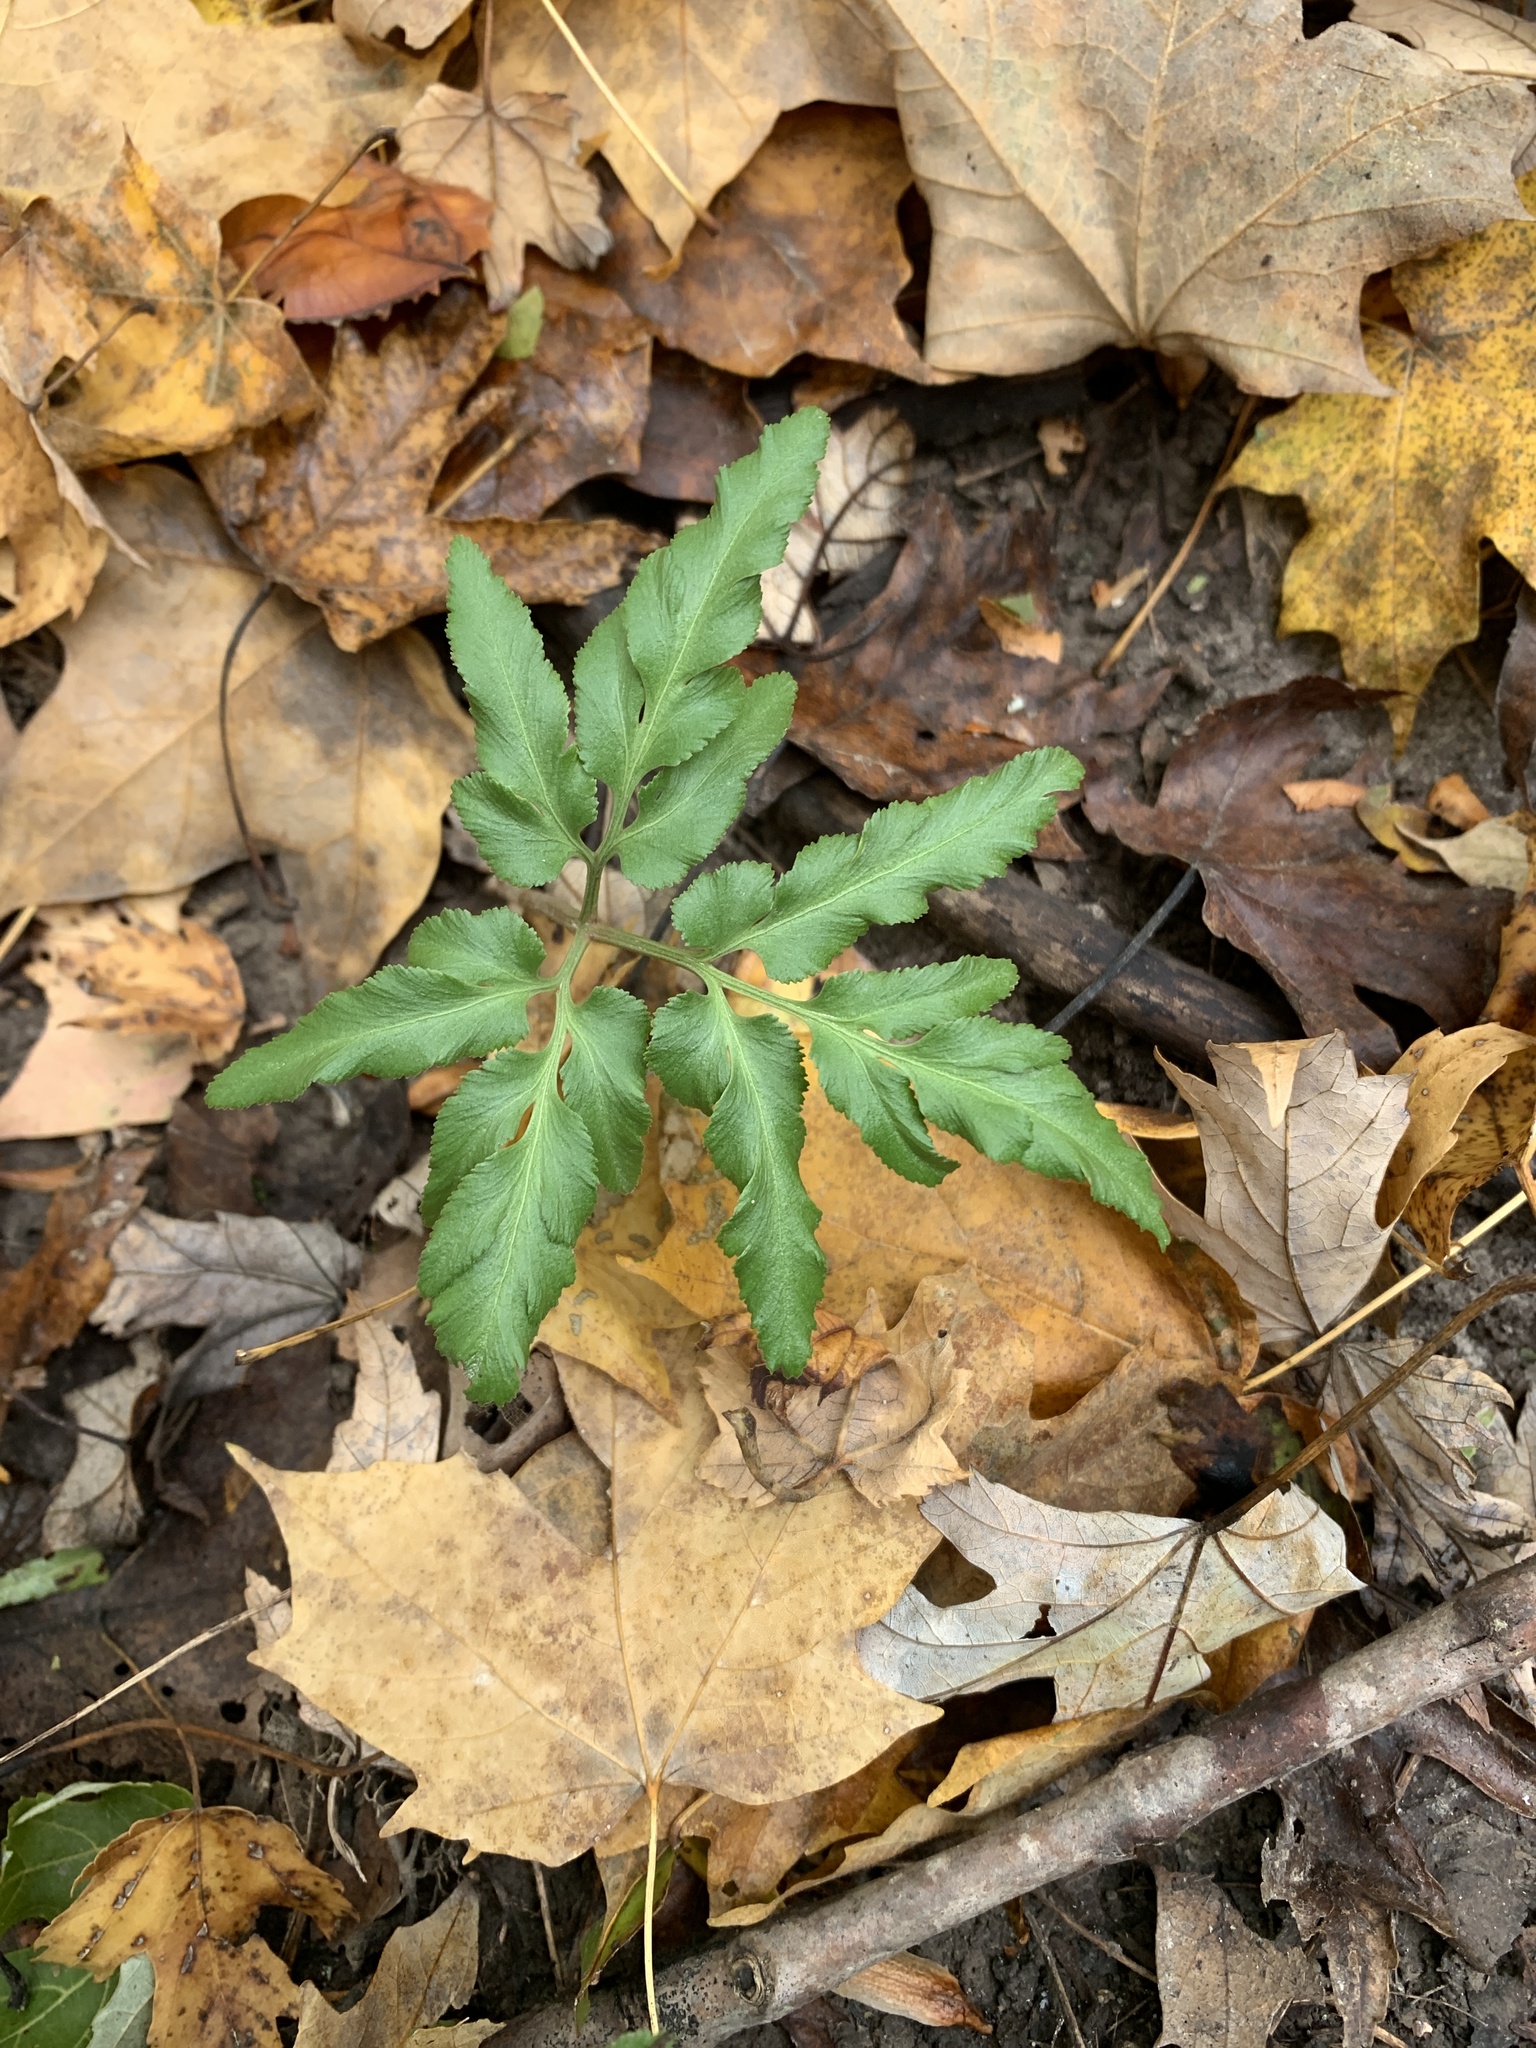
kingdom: Plantae
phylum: Tracheophyta
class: Polypodiopsida
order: Ophioglossales
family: Ophioglossaceae
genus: Sceptridium
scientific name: Sceptridium dissectum
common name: Cut-leaved grapefern
